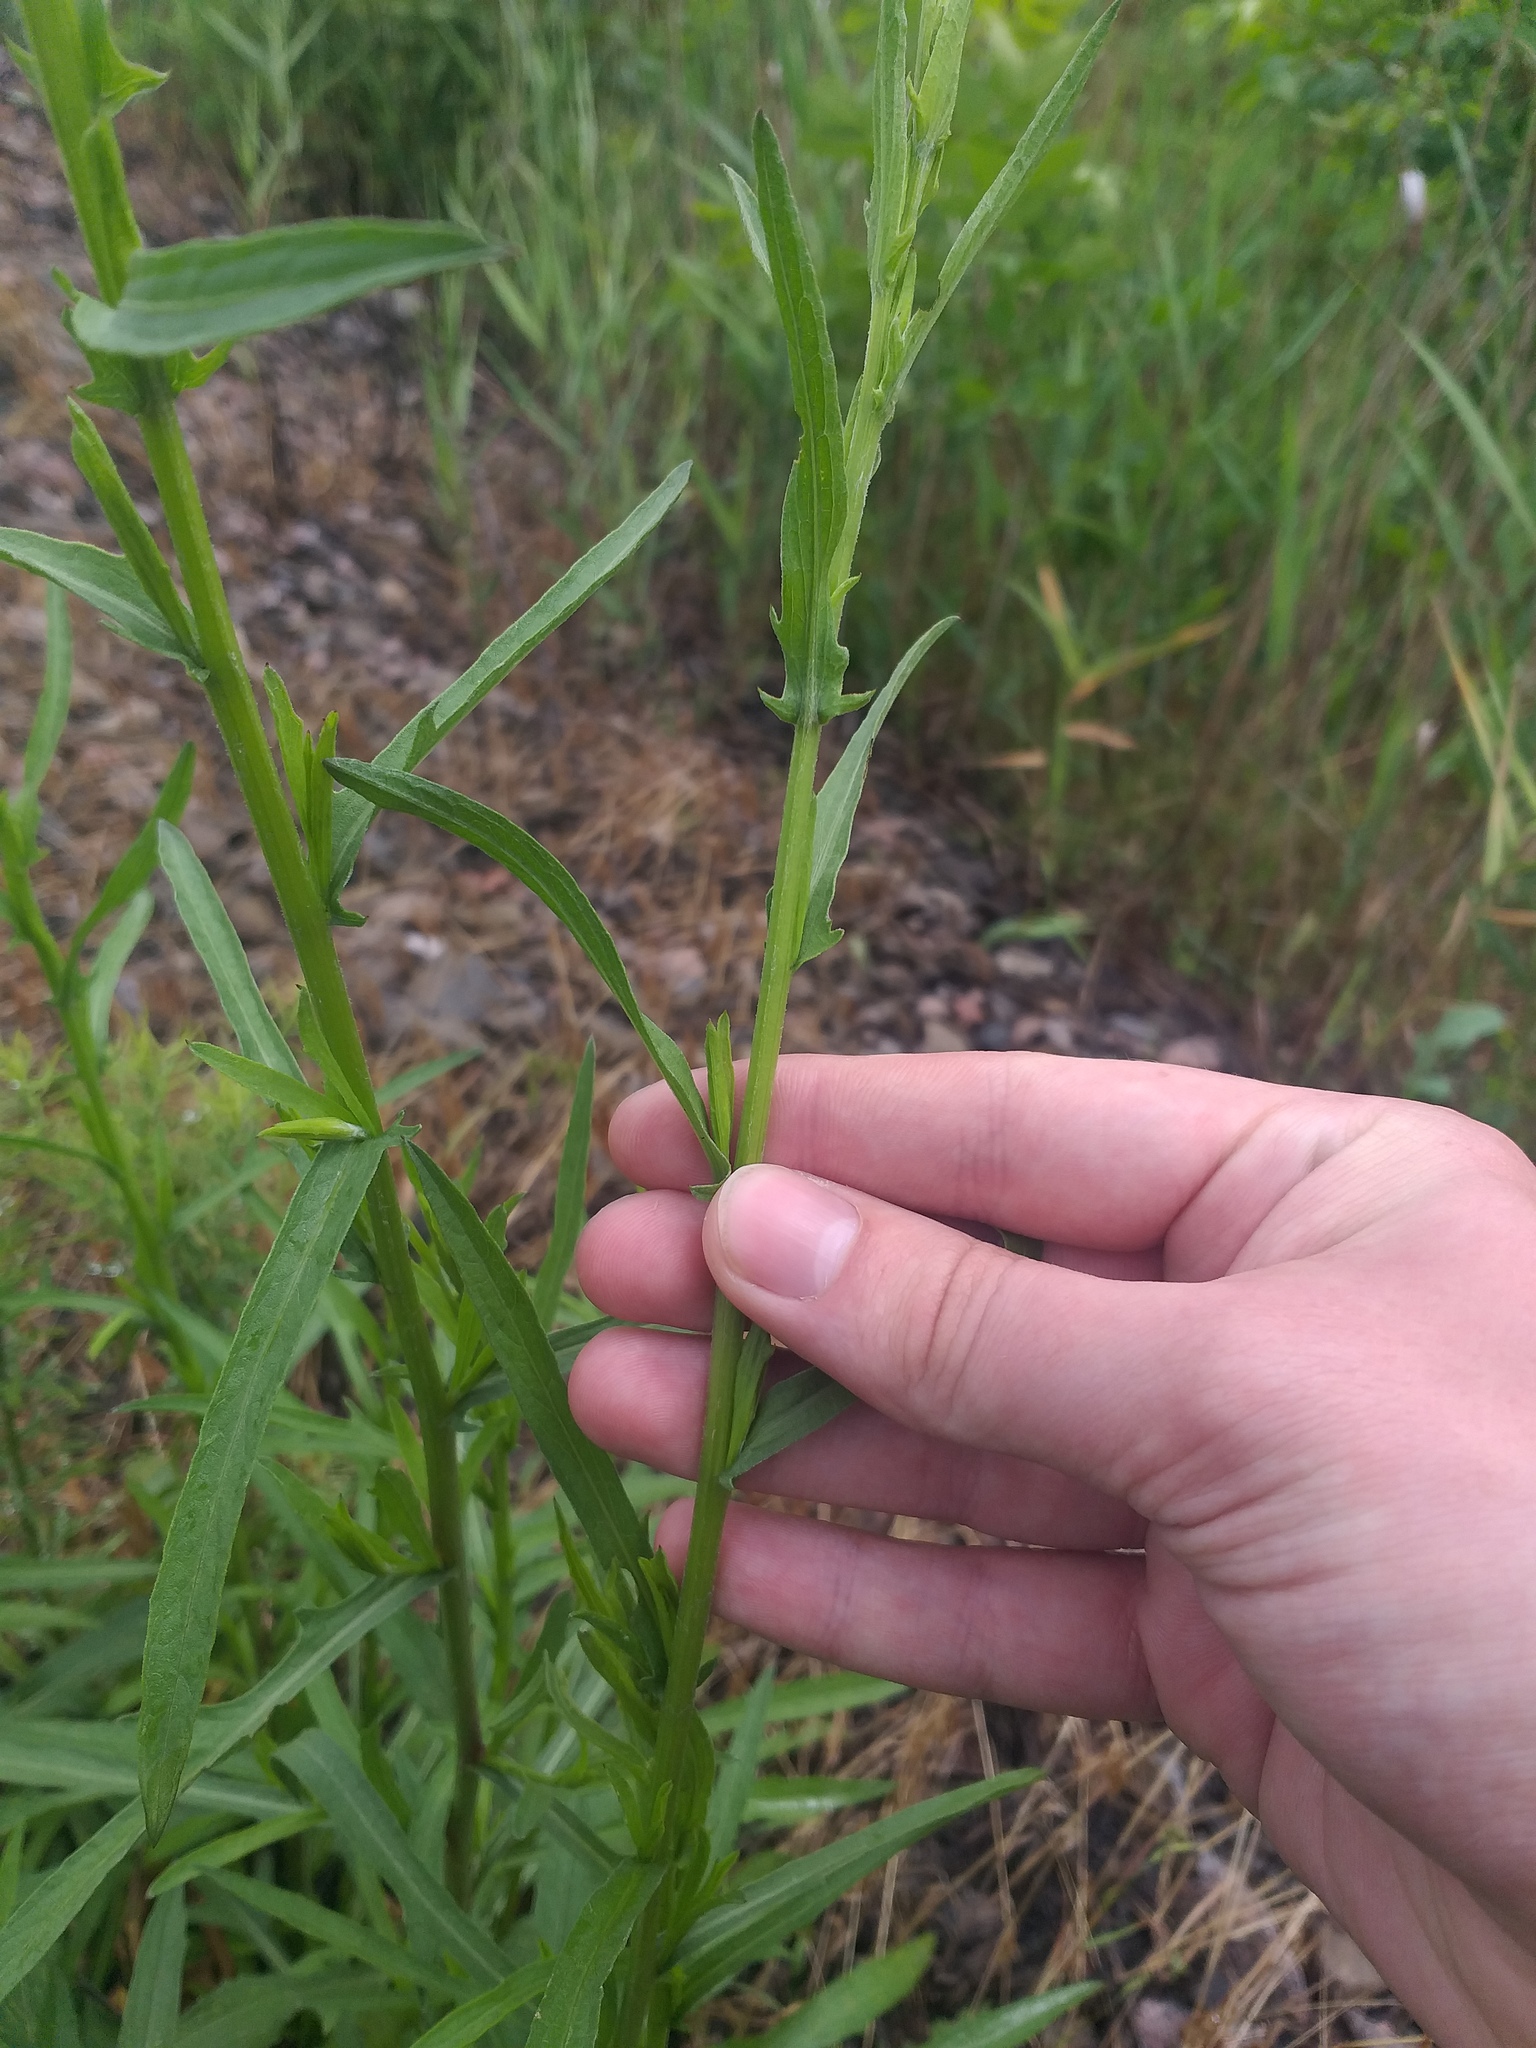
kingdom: Plantae
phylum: Tracheophyta
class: Magnoliopsida
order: Asterales
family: Asteraceae
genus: Centaurea
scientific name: Centaurea jacea
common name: Brown knapweed
